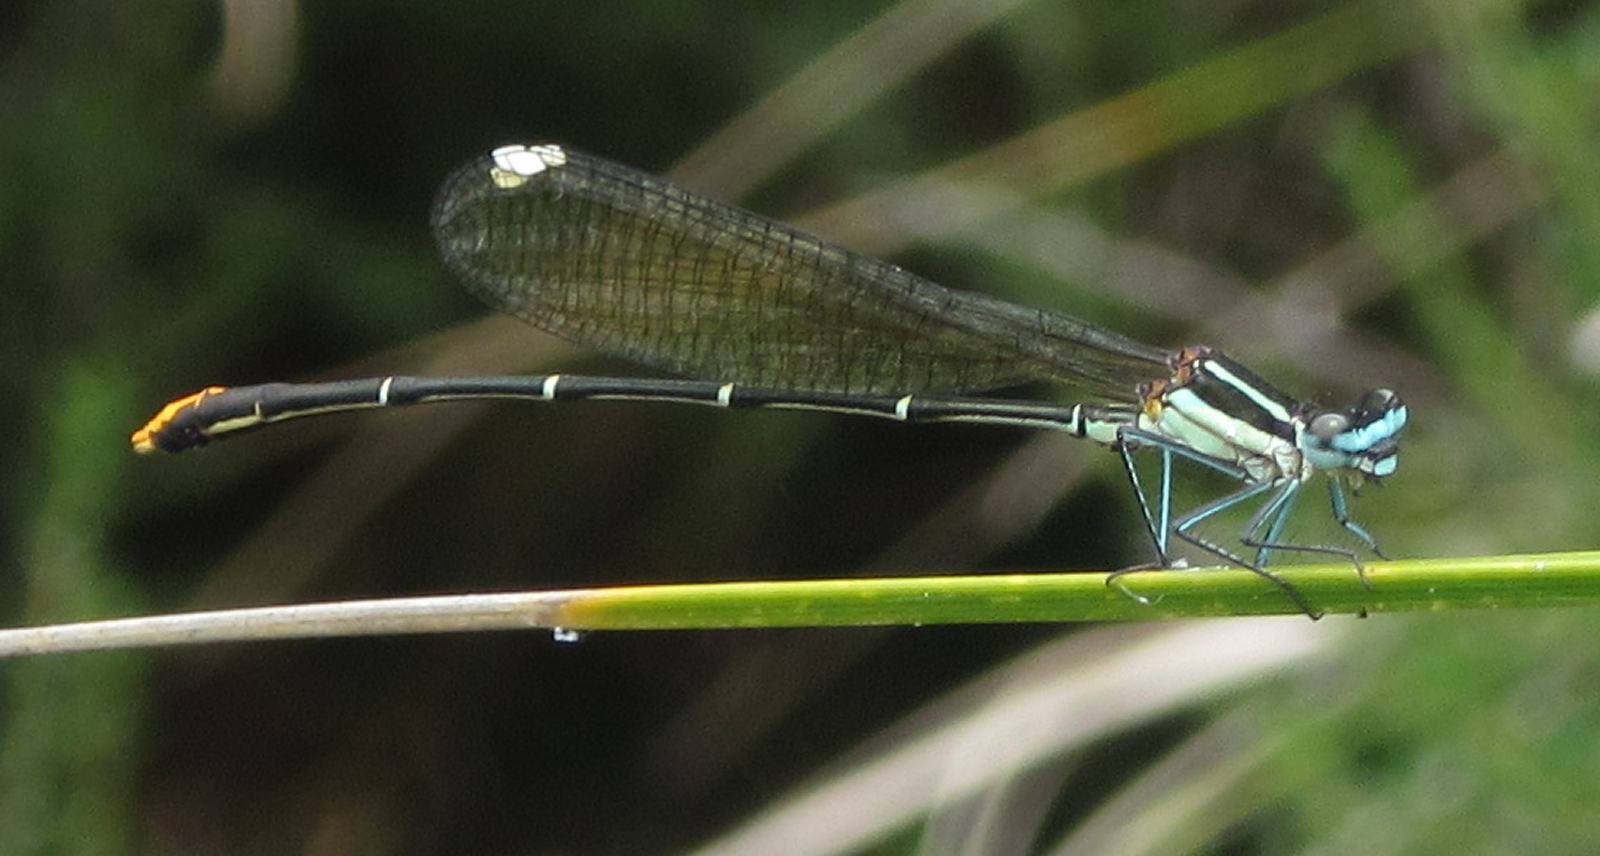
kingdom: Animalia
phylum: Arthropoda
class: Insecta
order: Odonata
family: Platycnemididae
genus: Allocnemis
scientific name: Allocnemis leucosticta
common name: Goldtail
